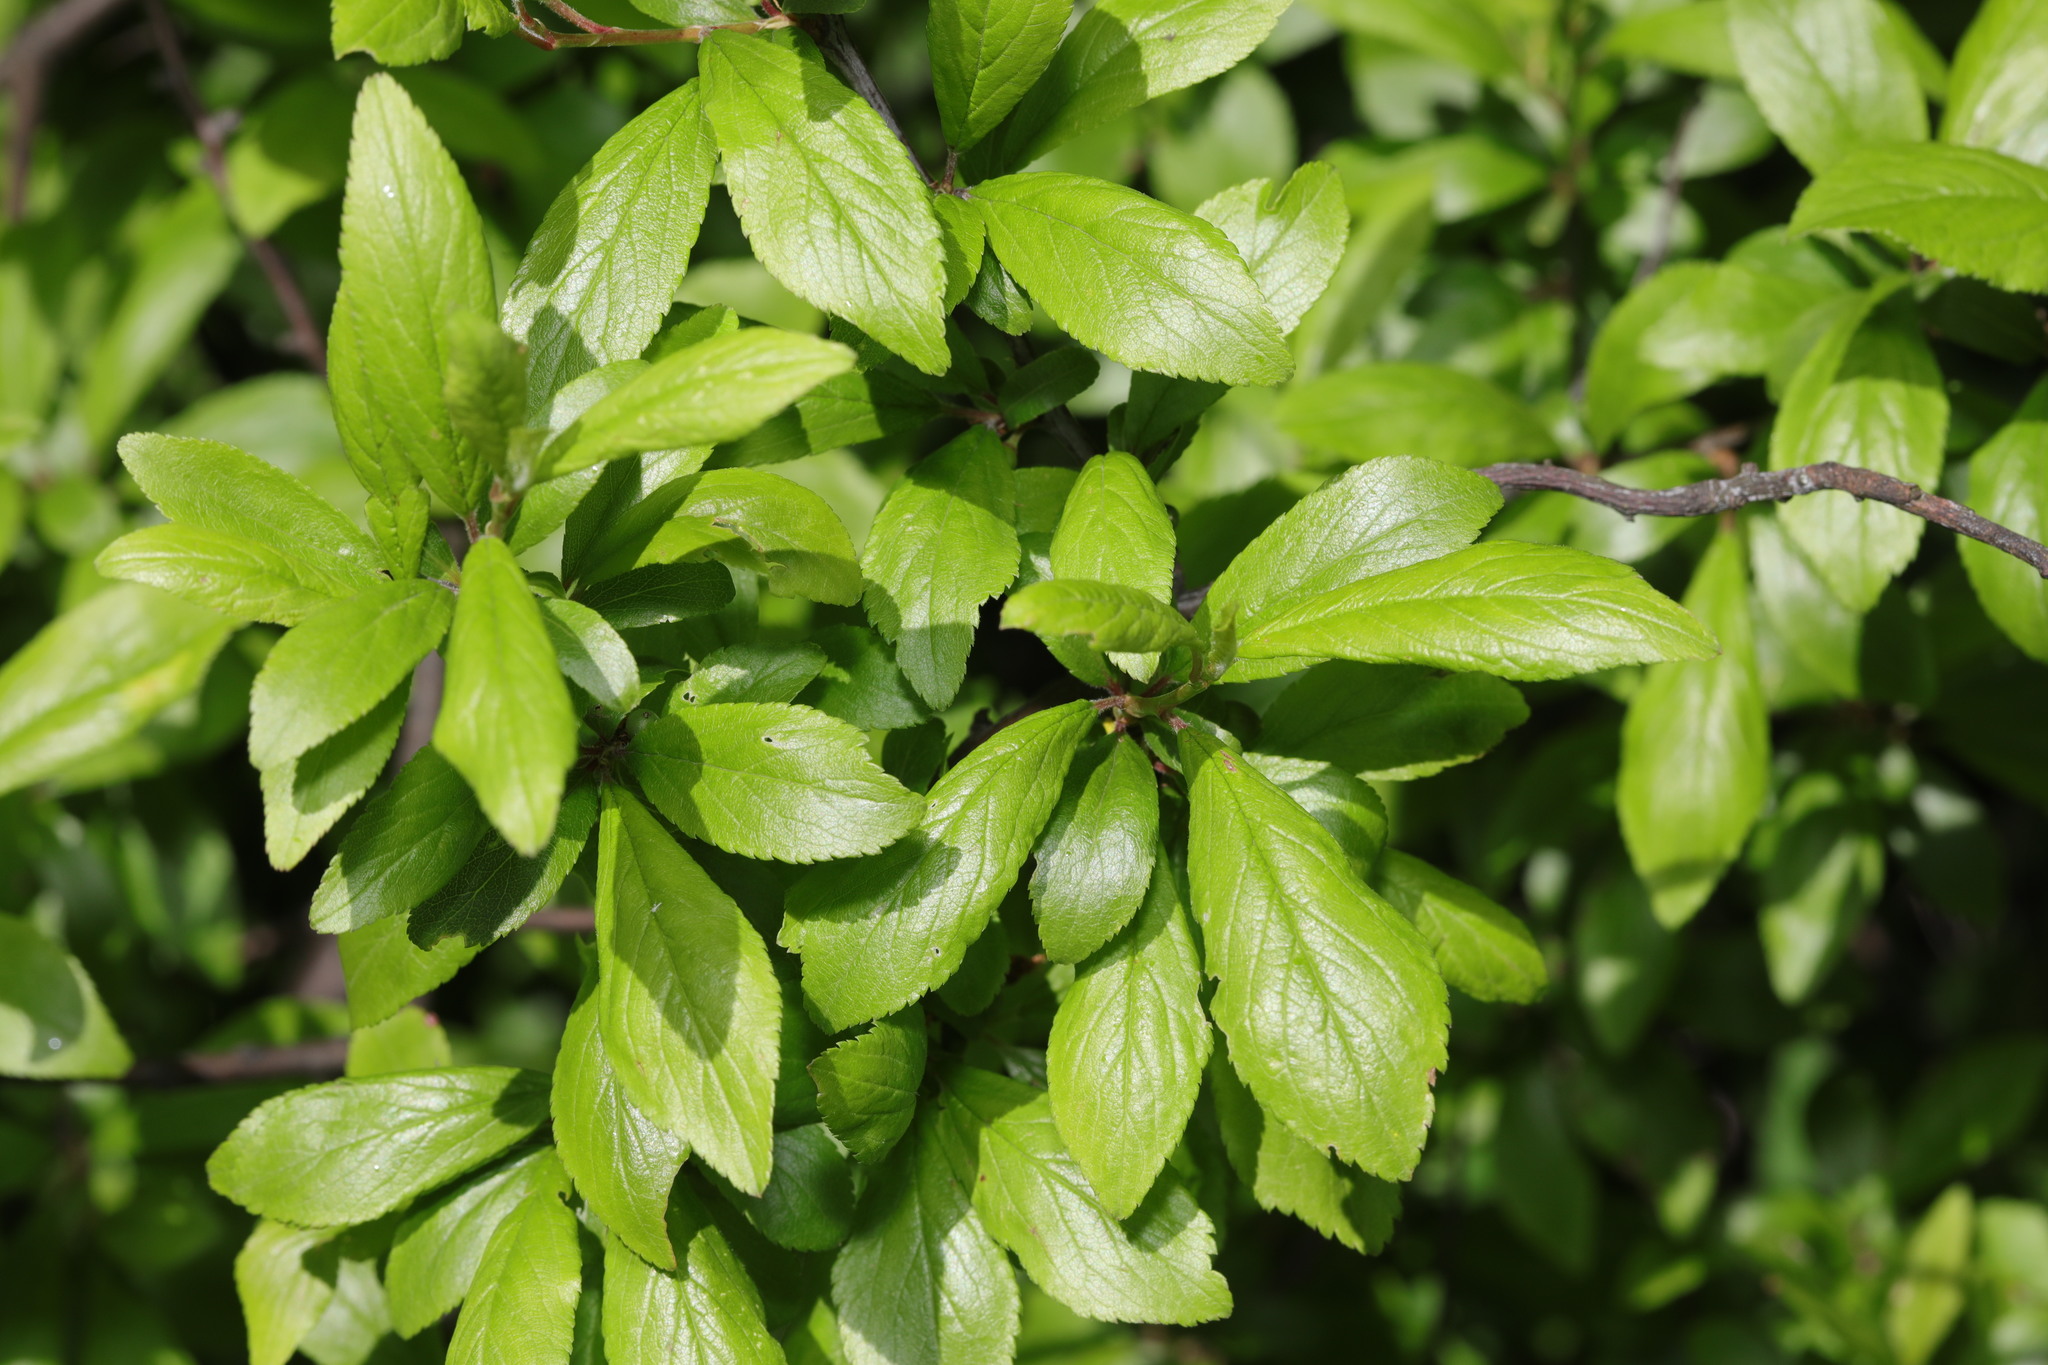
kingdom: Plantae
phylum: Tracheophyta
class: Magnoliopsida
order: Rosales
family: Rosaceae
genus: Prunus
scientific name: Prunus spinosa
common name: Blackthorn
